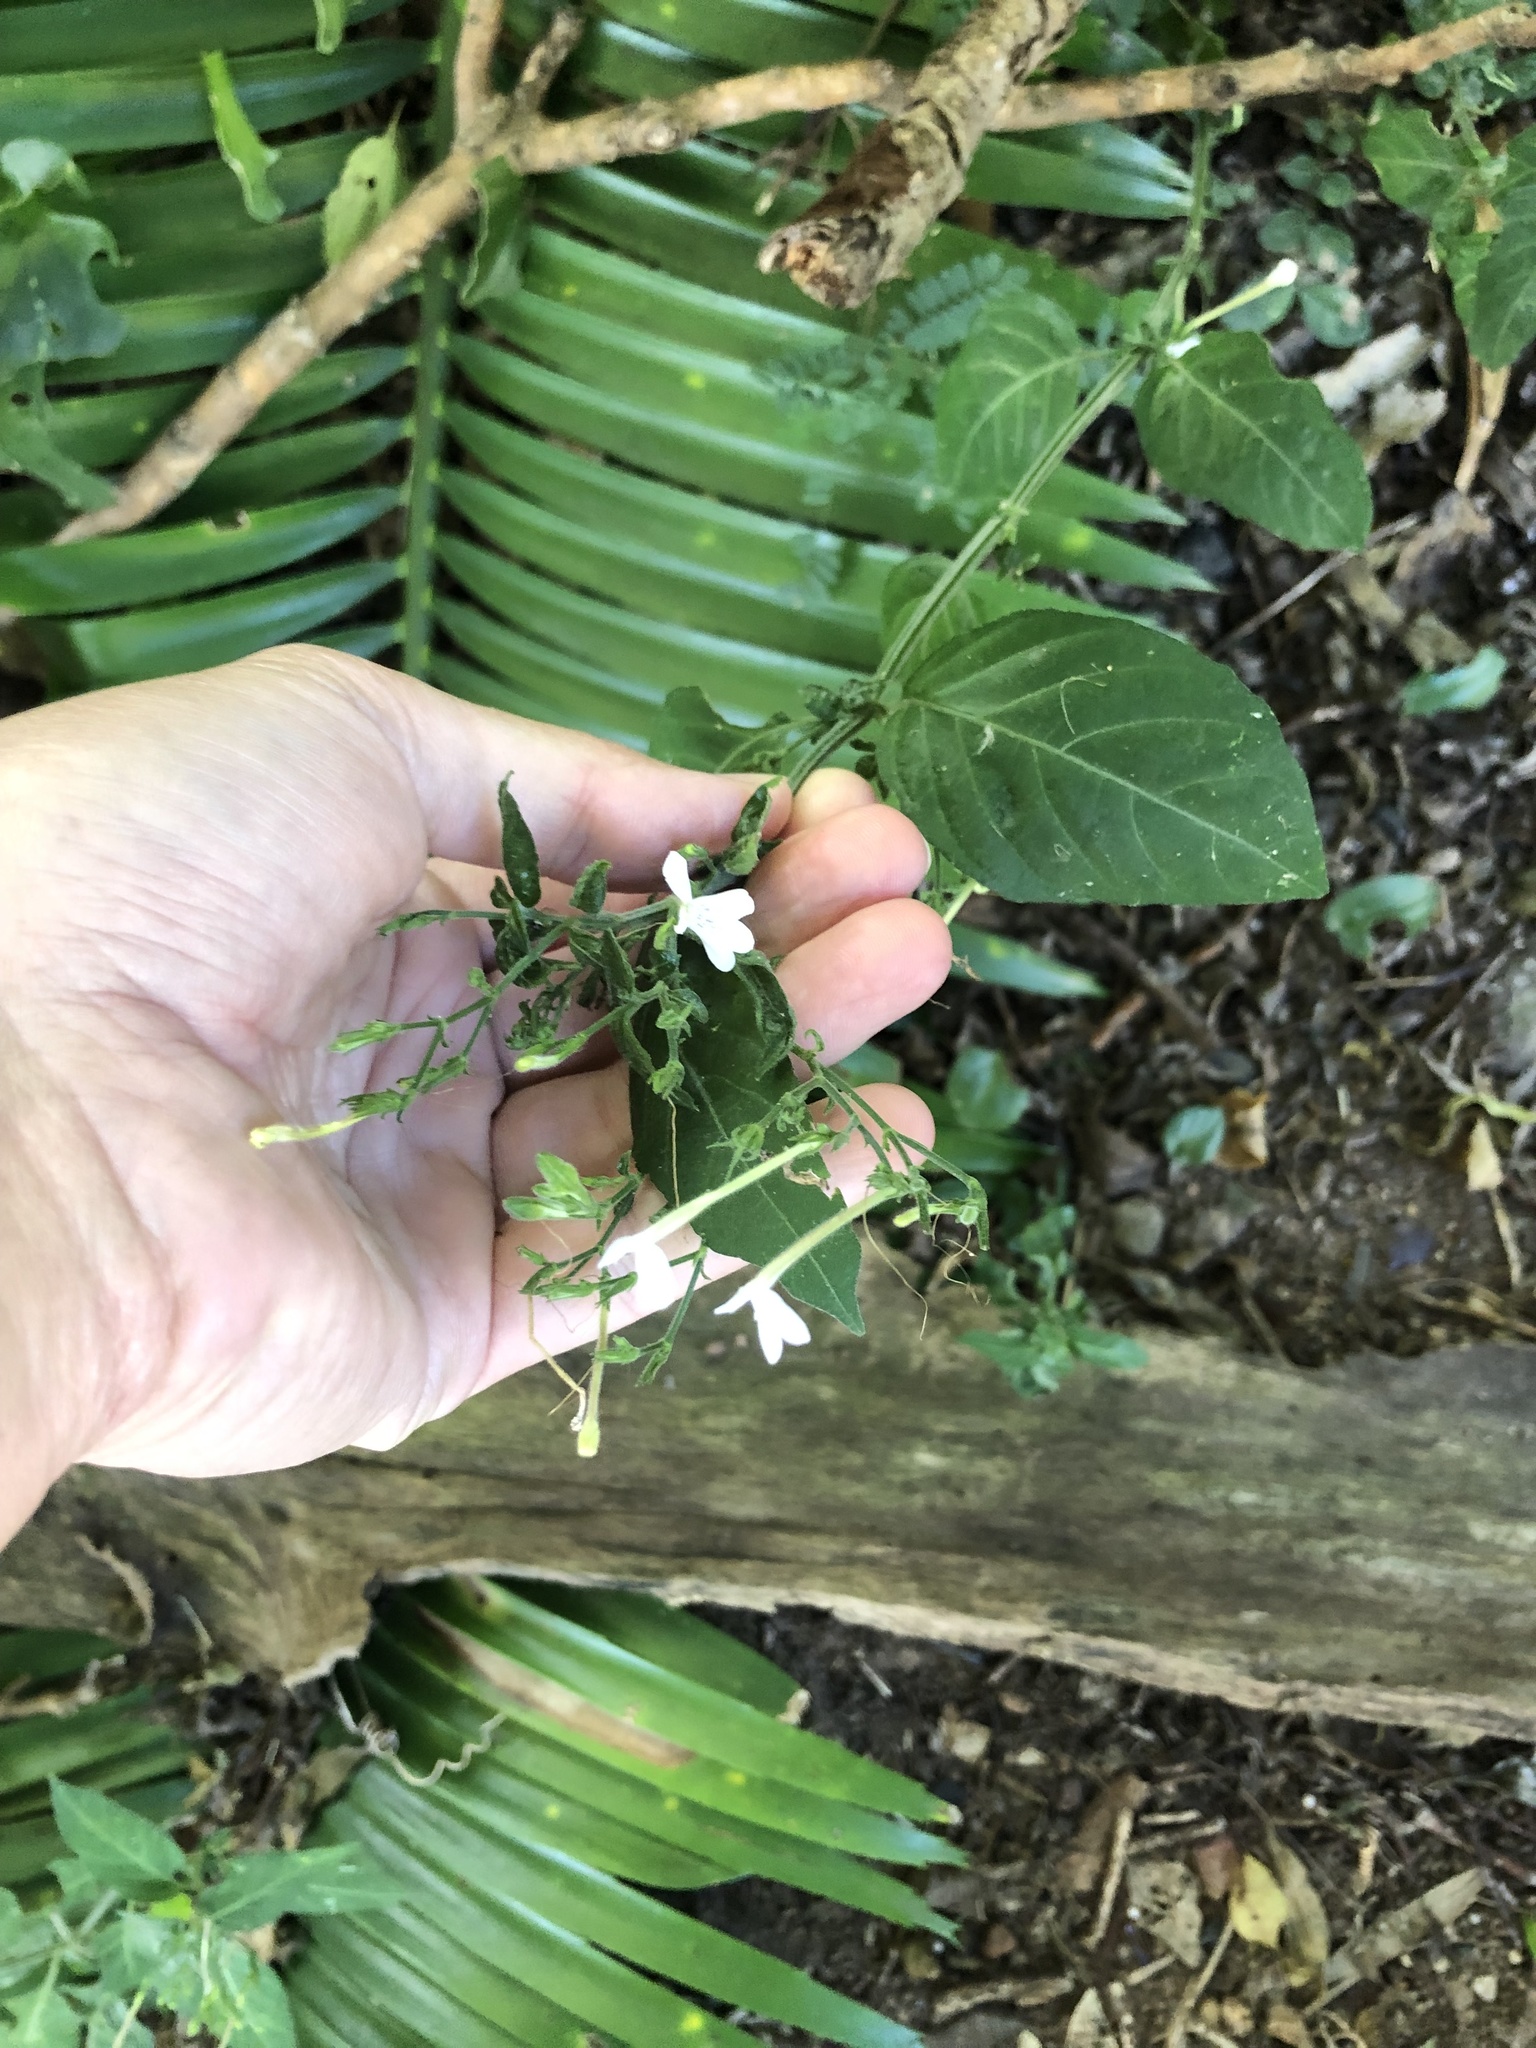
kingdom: Plantae
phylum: Tracheophyta
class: Magnoliopsida
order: Lamiales
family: Acanthaceae
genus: Rhinacanthus
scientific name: Rhinacanthus latilabiatus
